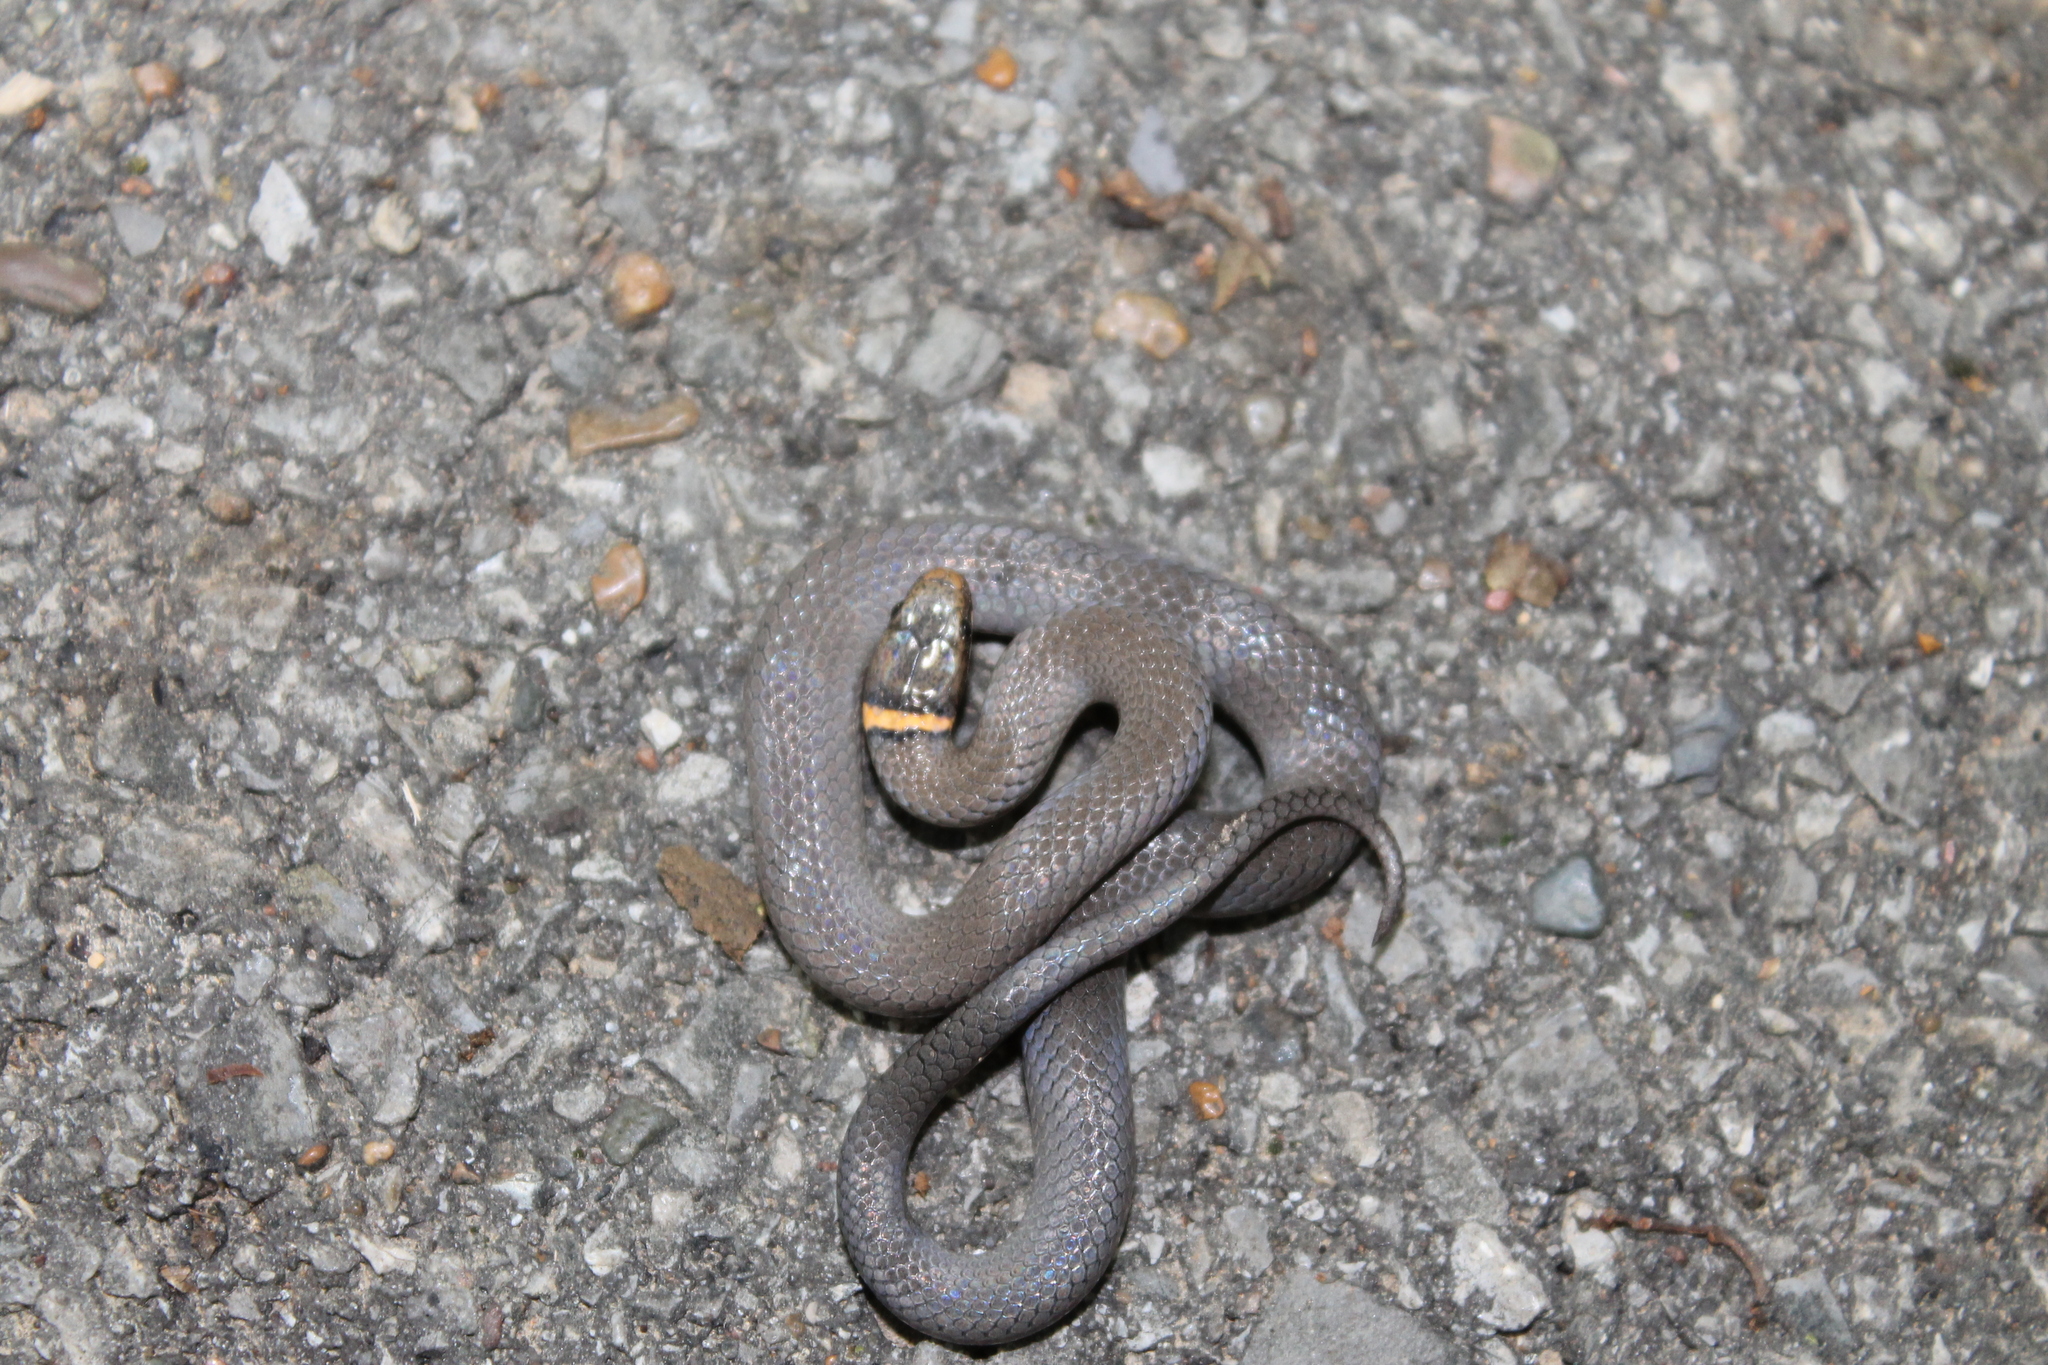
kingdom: Animalia
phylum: Chordata
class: Squamata
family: Colubridae
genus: Diadophis
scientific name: Diadophis punctatus
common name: Ringneck snake
